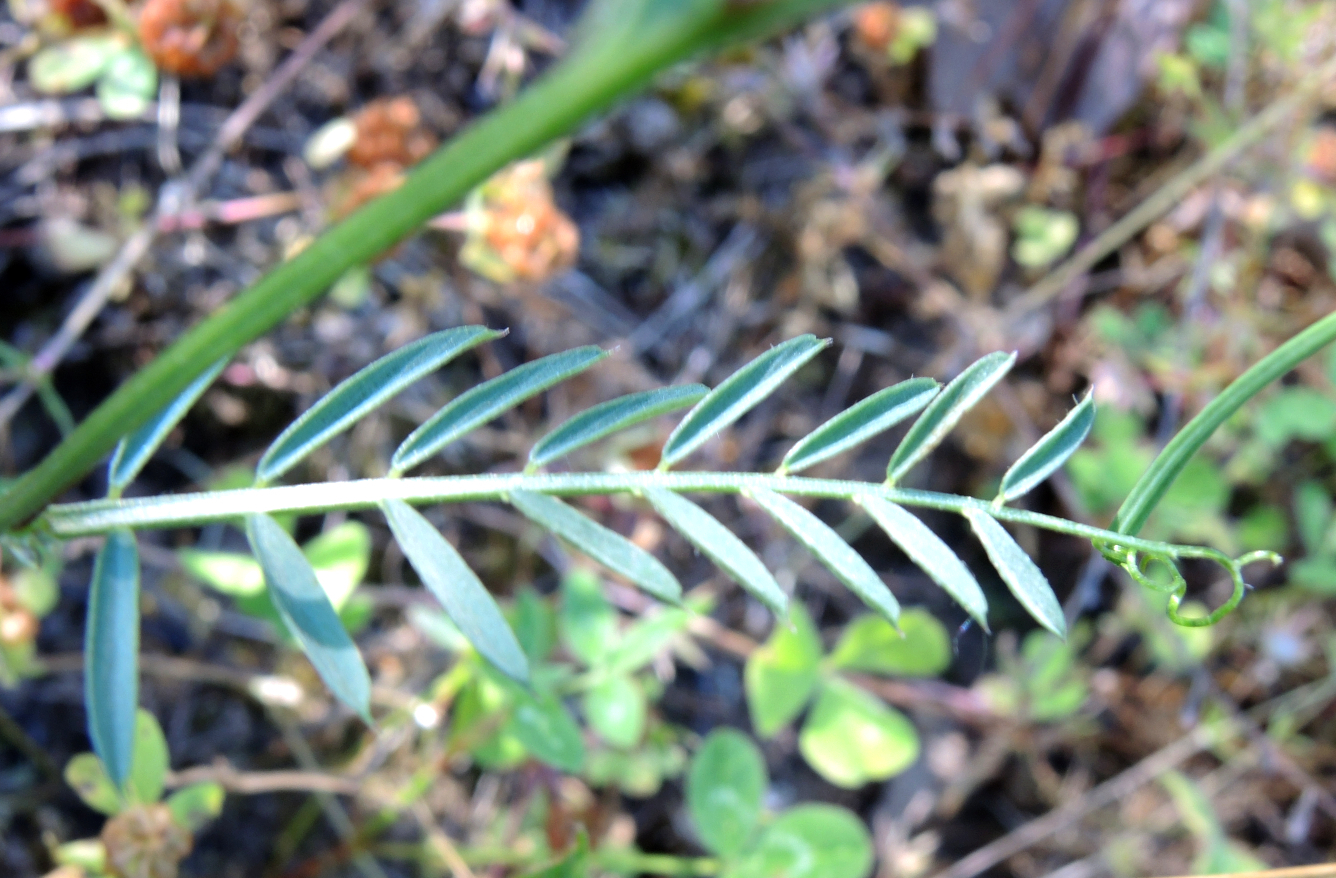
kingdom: Plantae
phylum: Tracheophyta
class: Magnoliopsida
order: Fabales
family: Fabaceae
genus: Vicia
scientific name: Vicia melanops
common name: Black-eyed vetch
